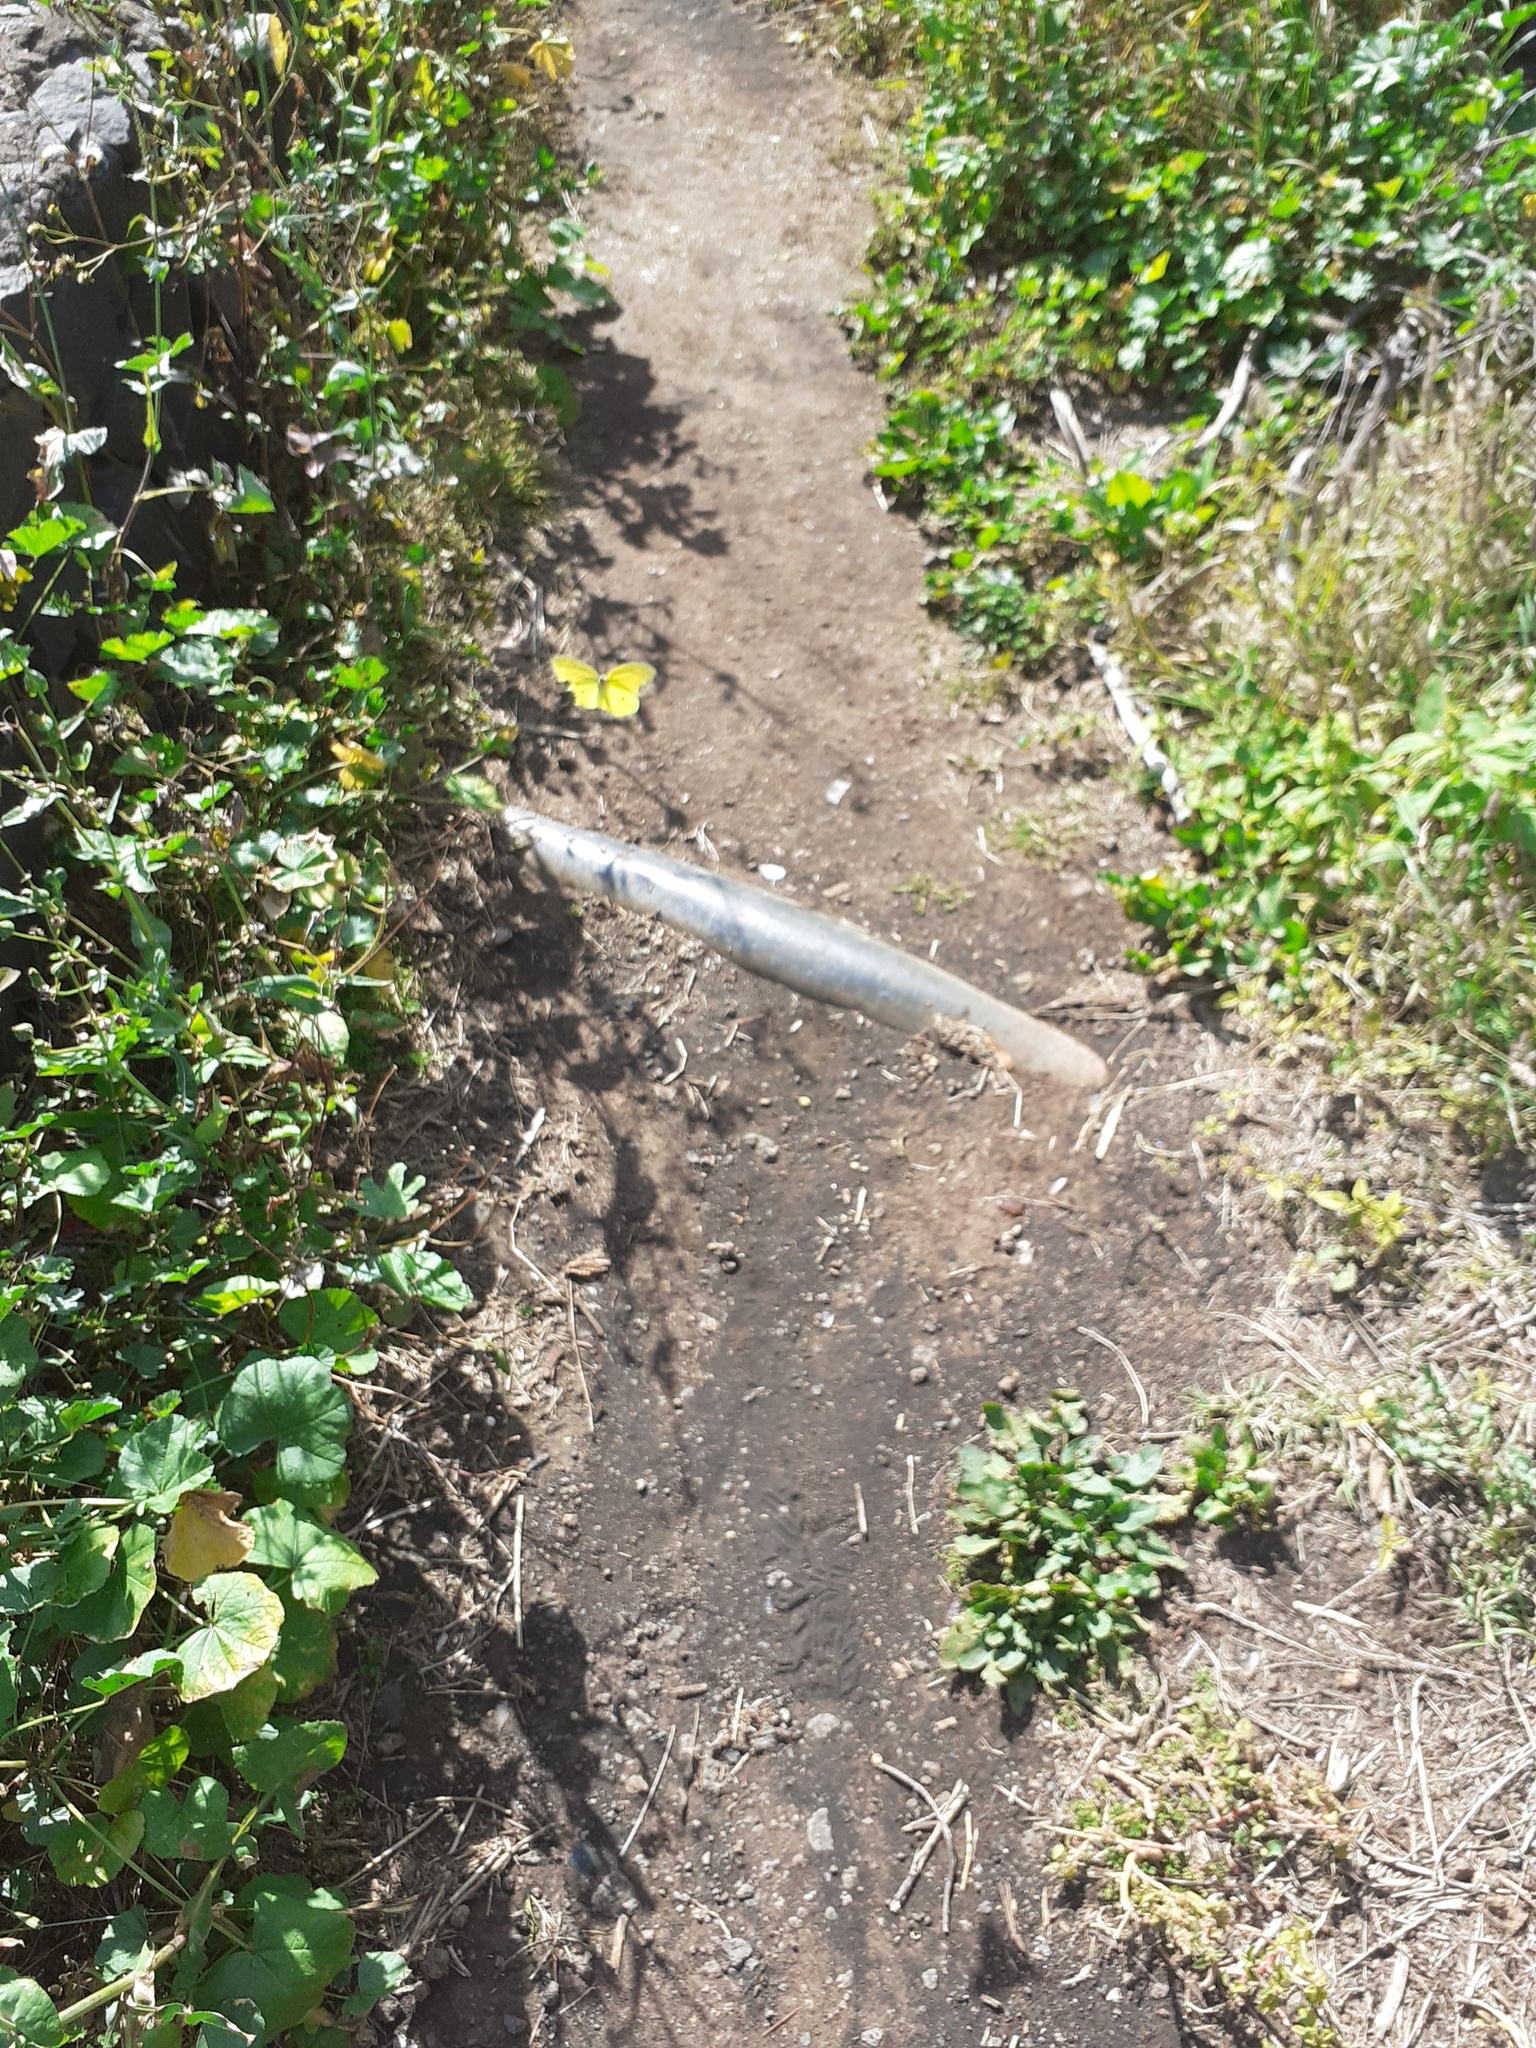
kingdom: Animalia
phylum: Arthropoda
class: Insecta
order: Lepidoptera
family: Pieridae
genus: Gonepteryx
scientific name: Gonepteryx cleobule
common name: Canary brimstone
